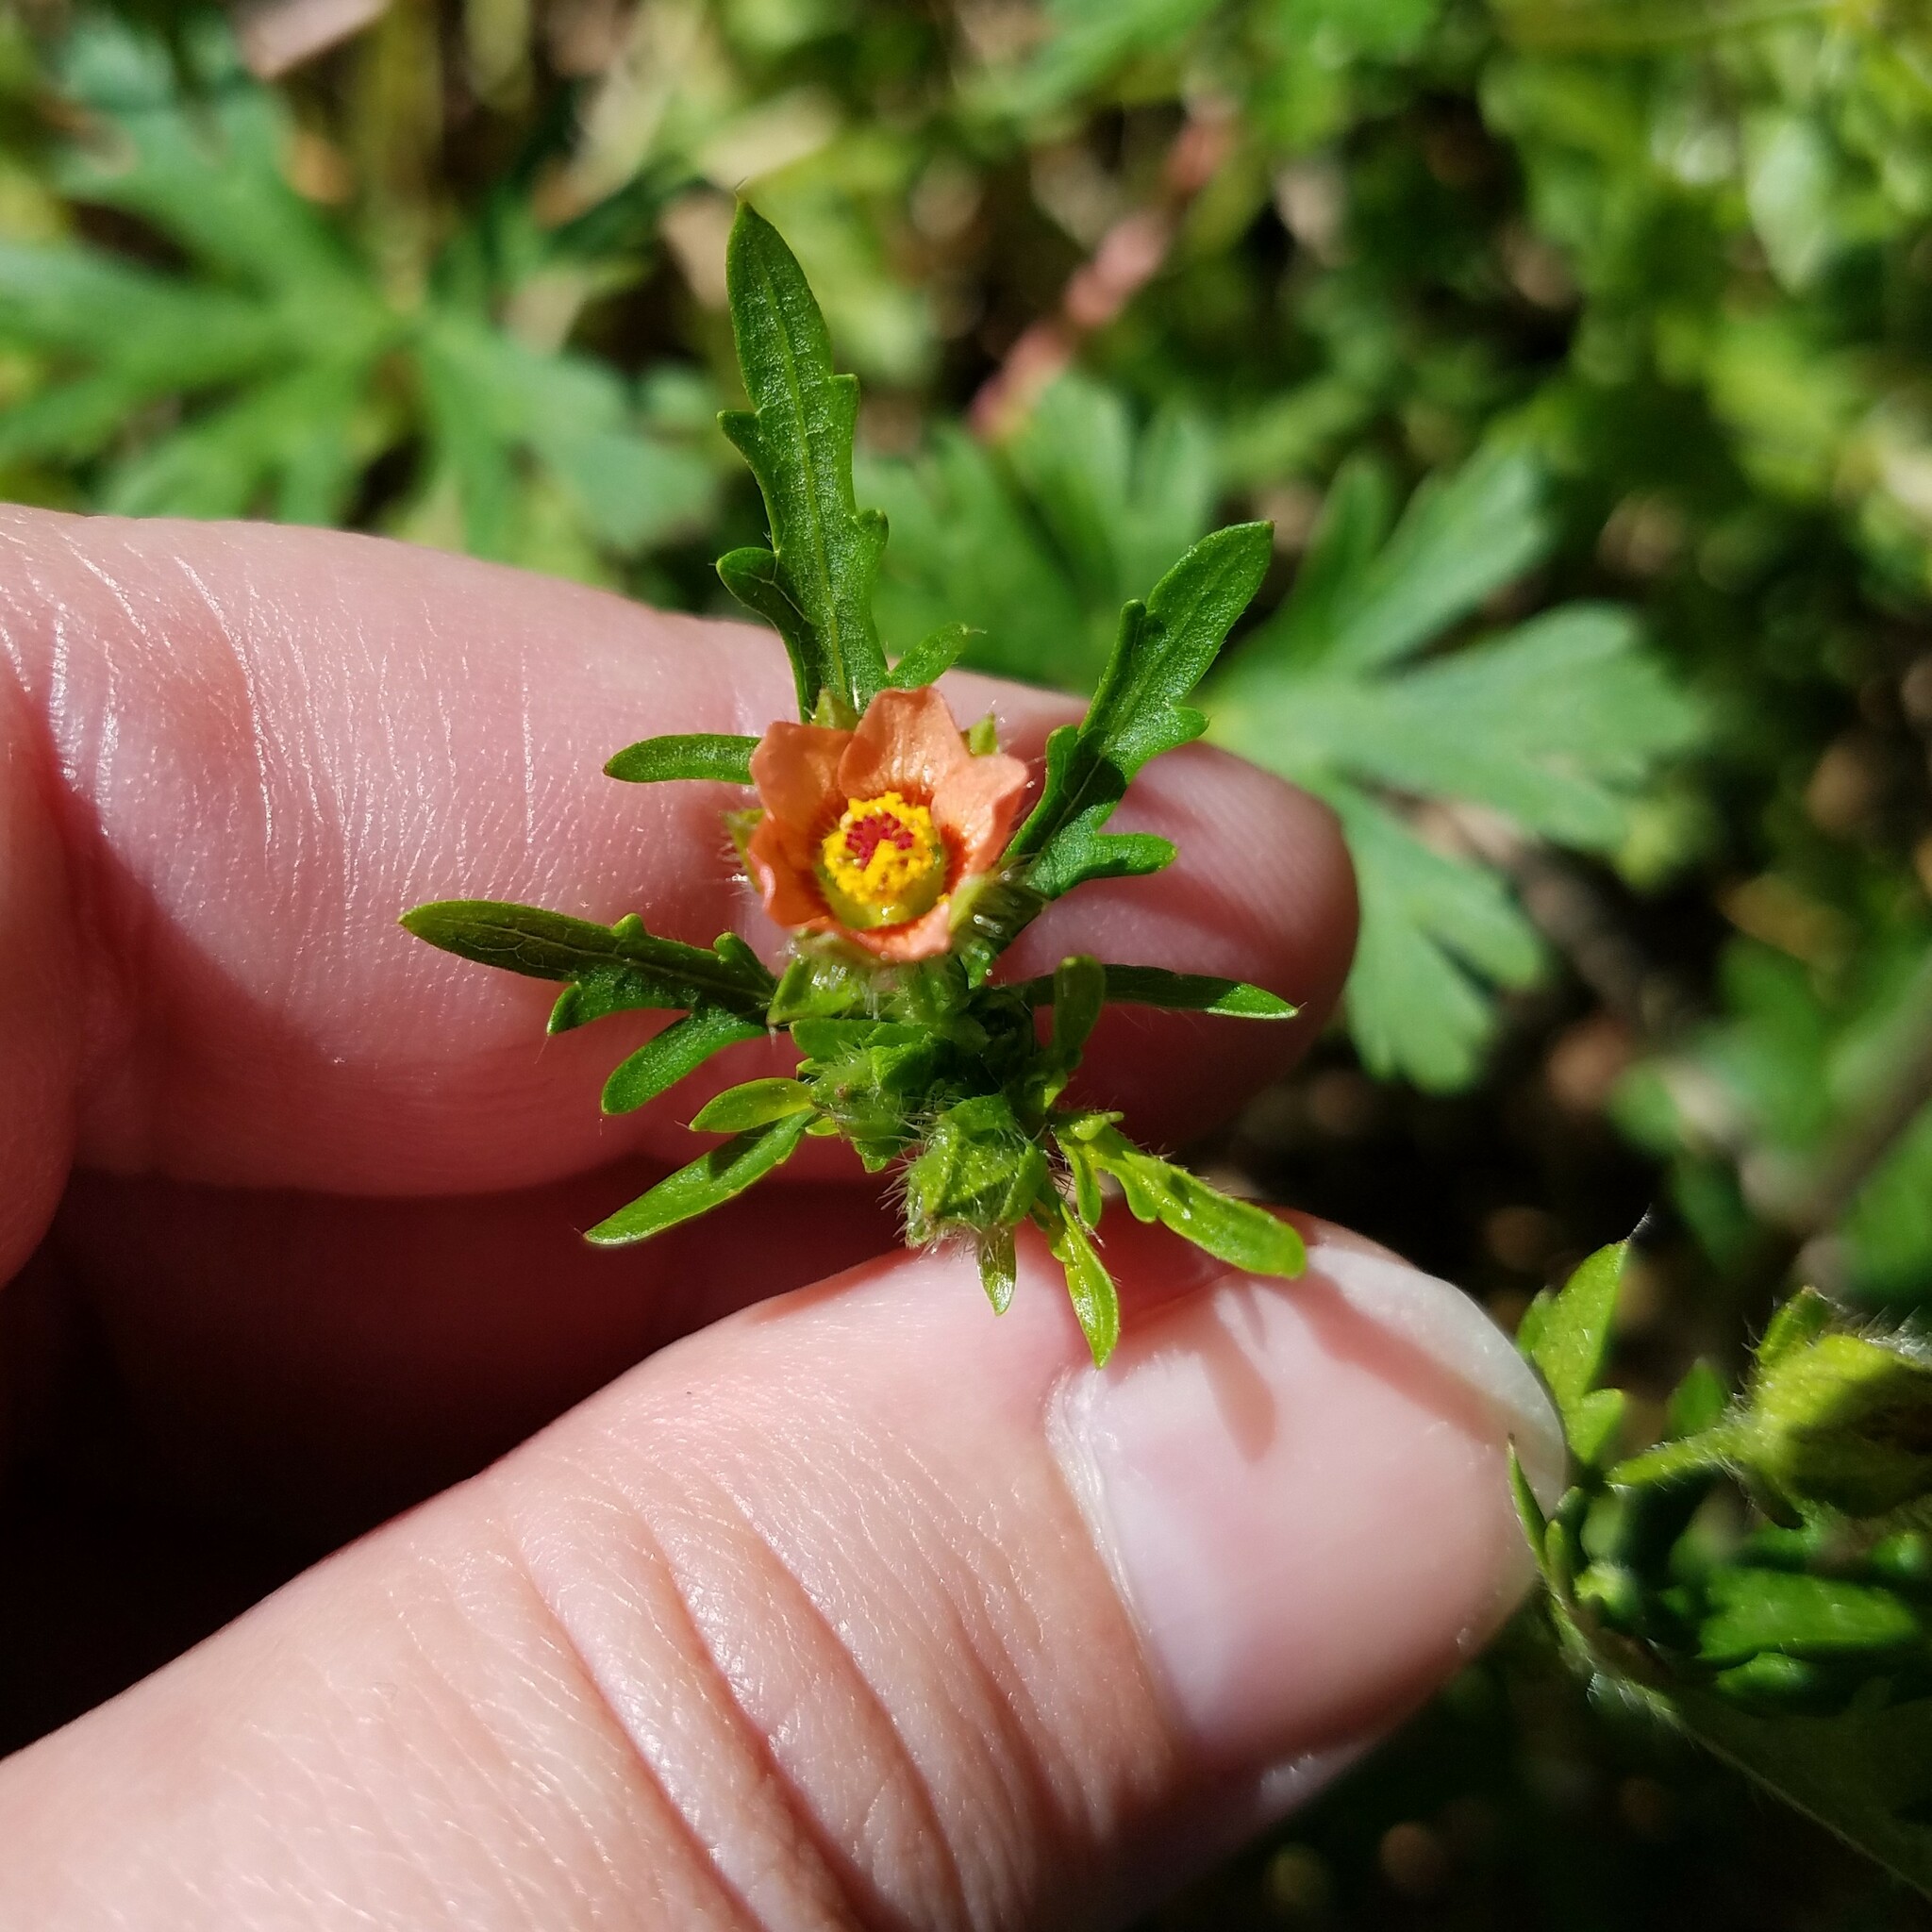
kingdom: Plantae
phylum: Tracheophyta
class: Magnoliopsida
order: Malvales
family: Malvaceae
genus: Modiola
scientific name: Modiola caroliniana
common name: Carolina bristlemallow
